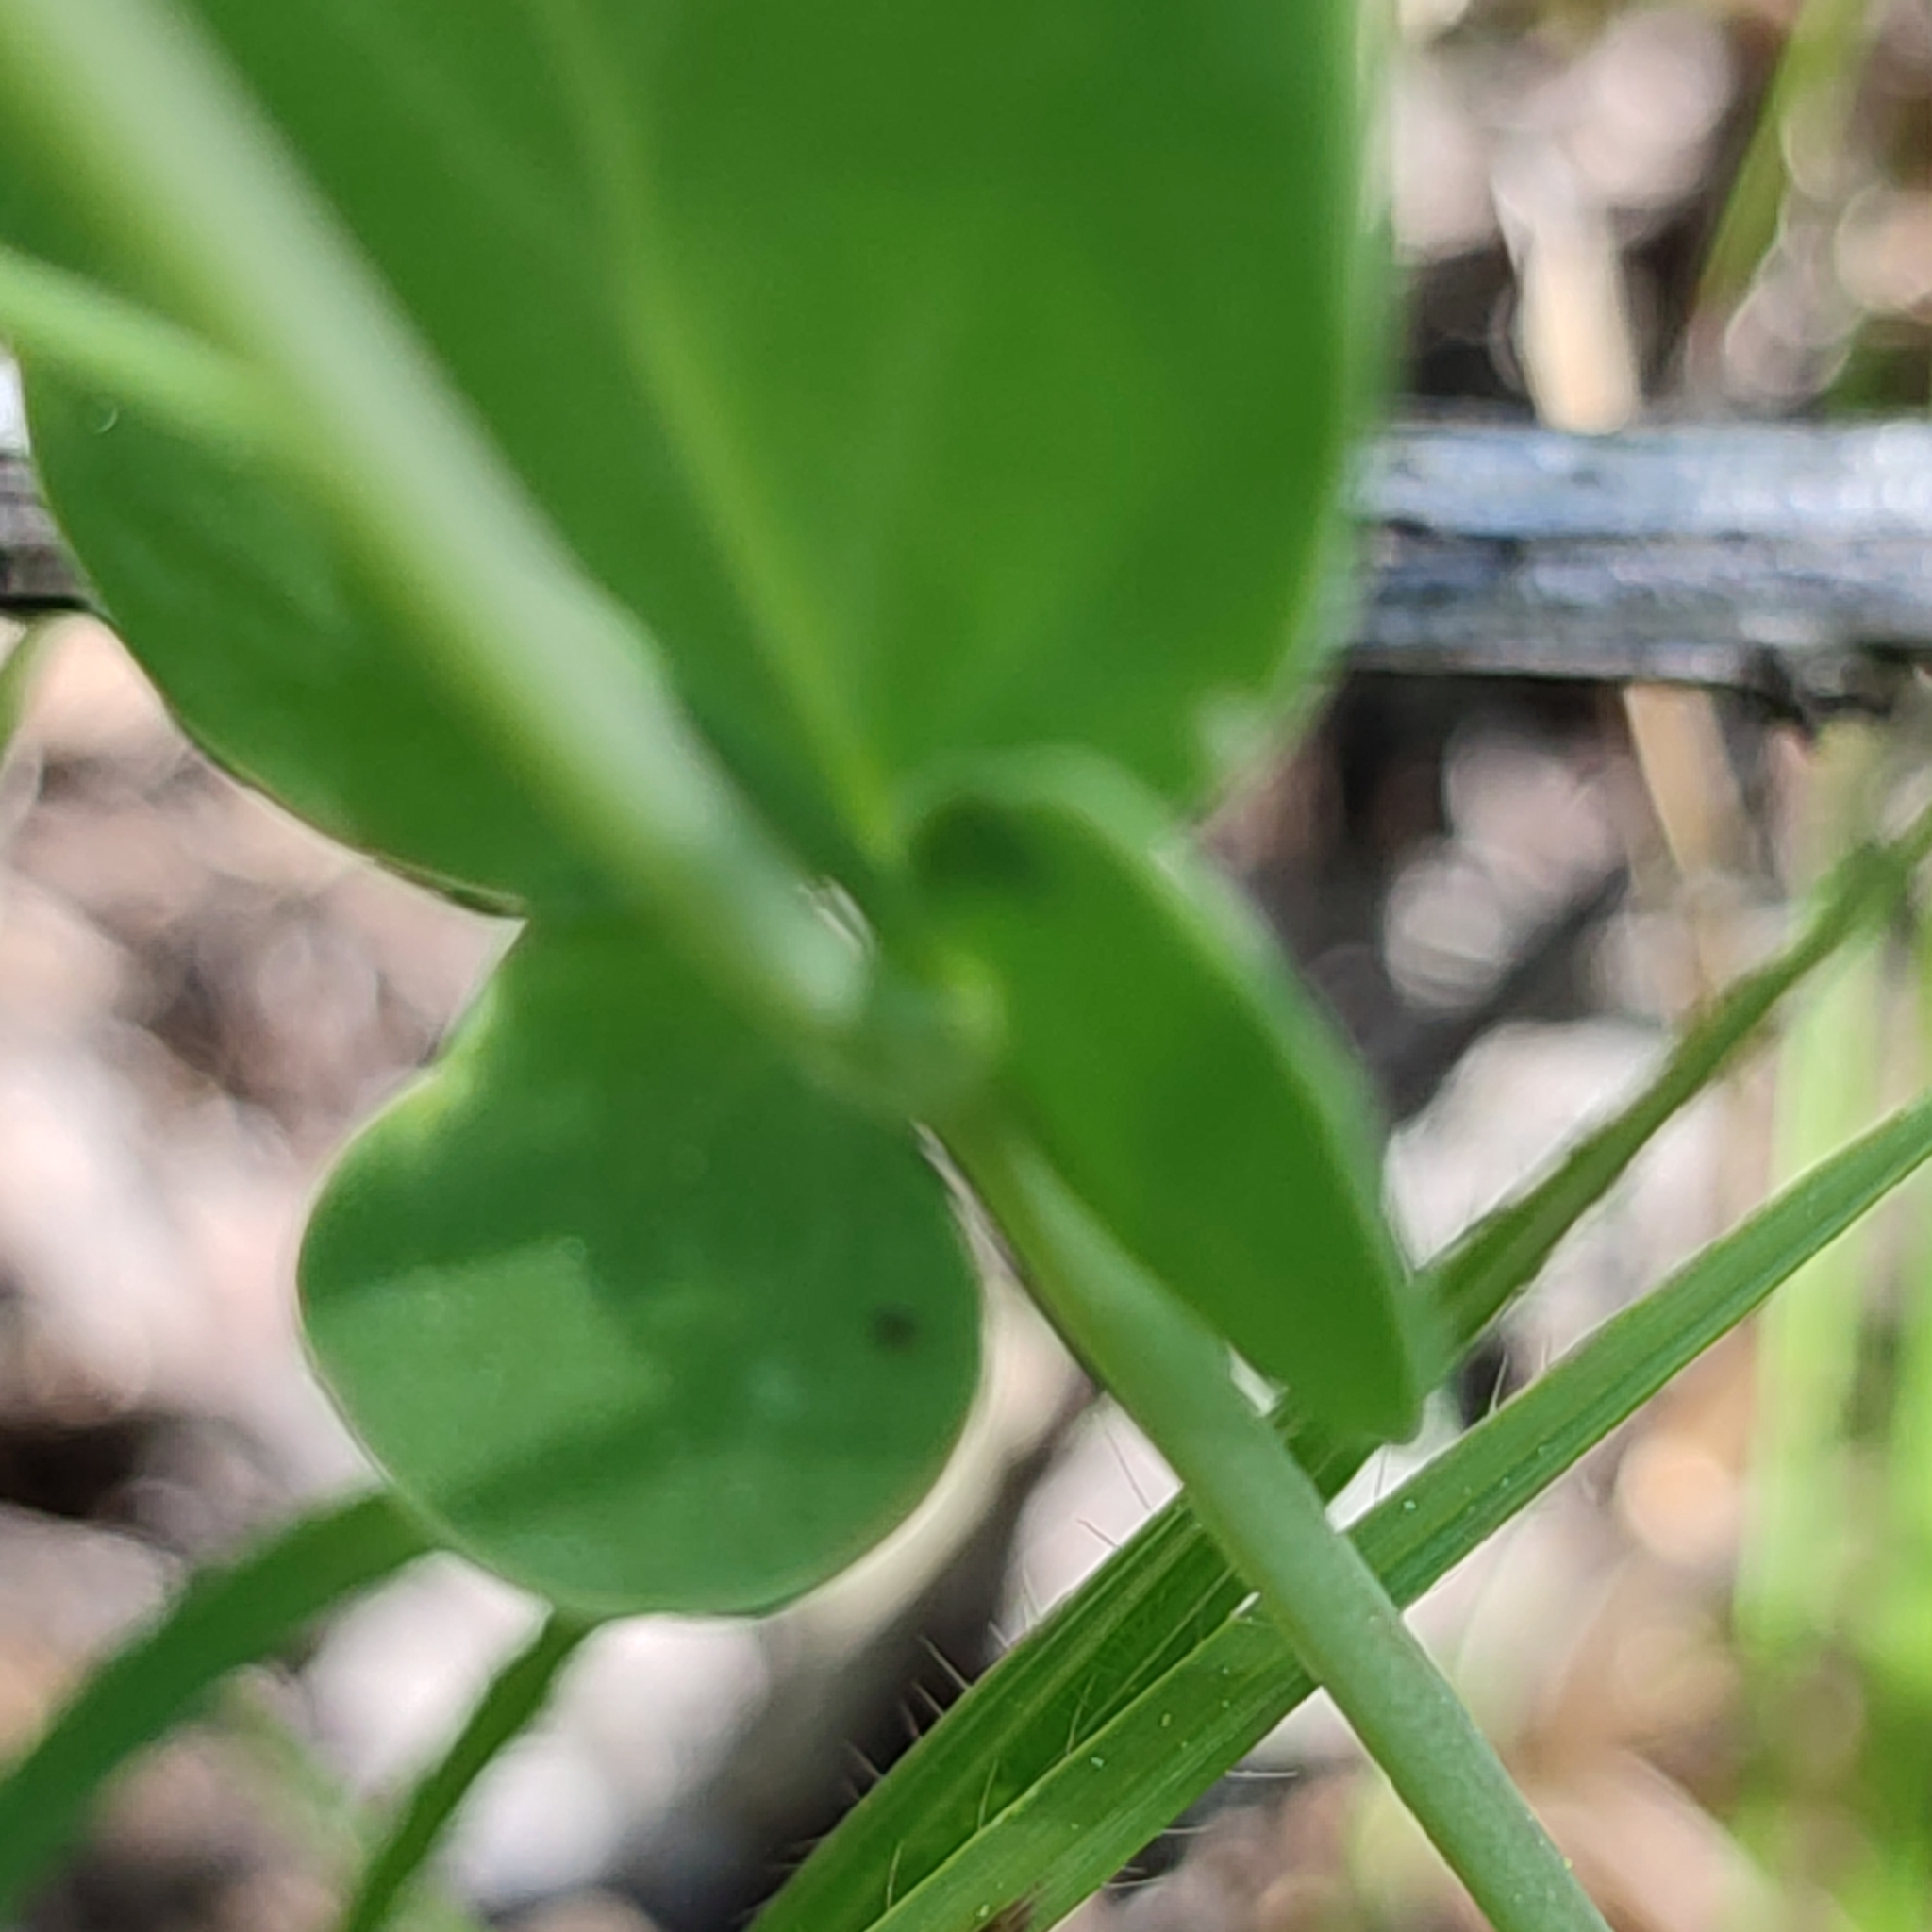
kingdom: Plantae
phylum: Tracheophyta
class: Magnoliopsida
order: Fabales
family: Fabaceae
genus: Coronilla
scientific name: Coronilla scorpioides
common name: Annual scorpion-vetch
